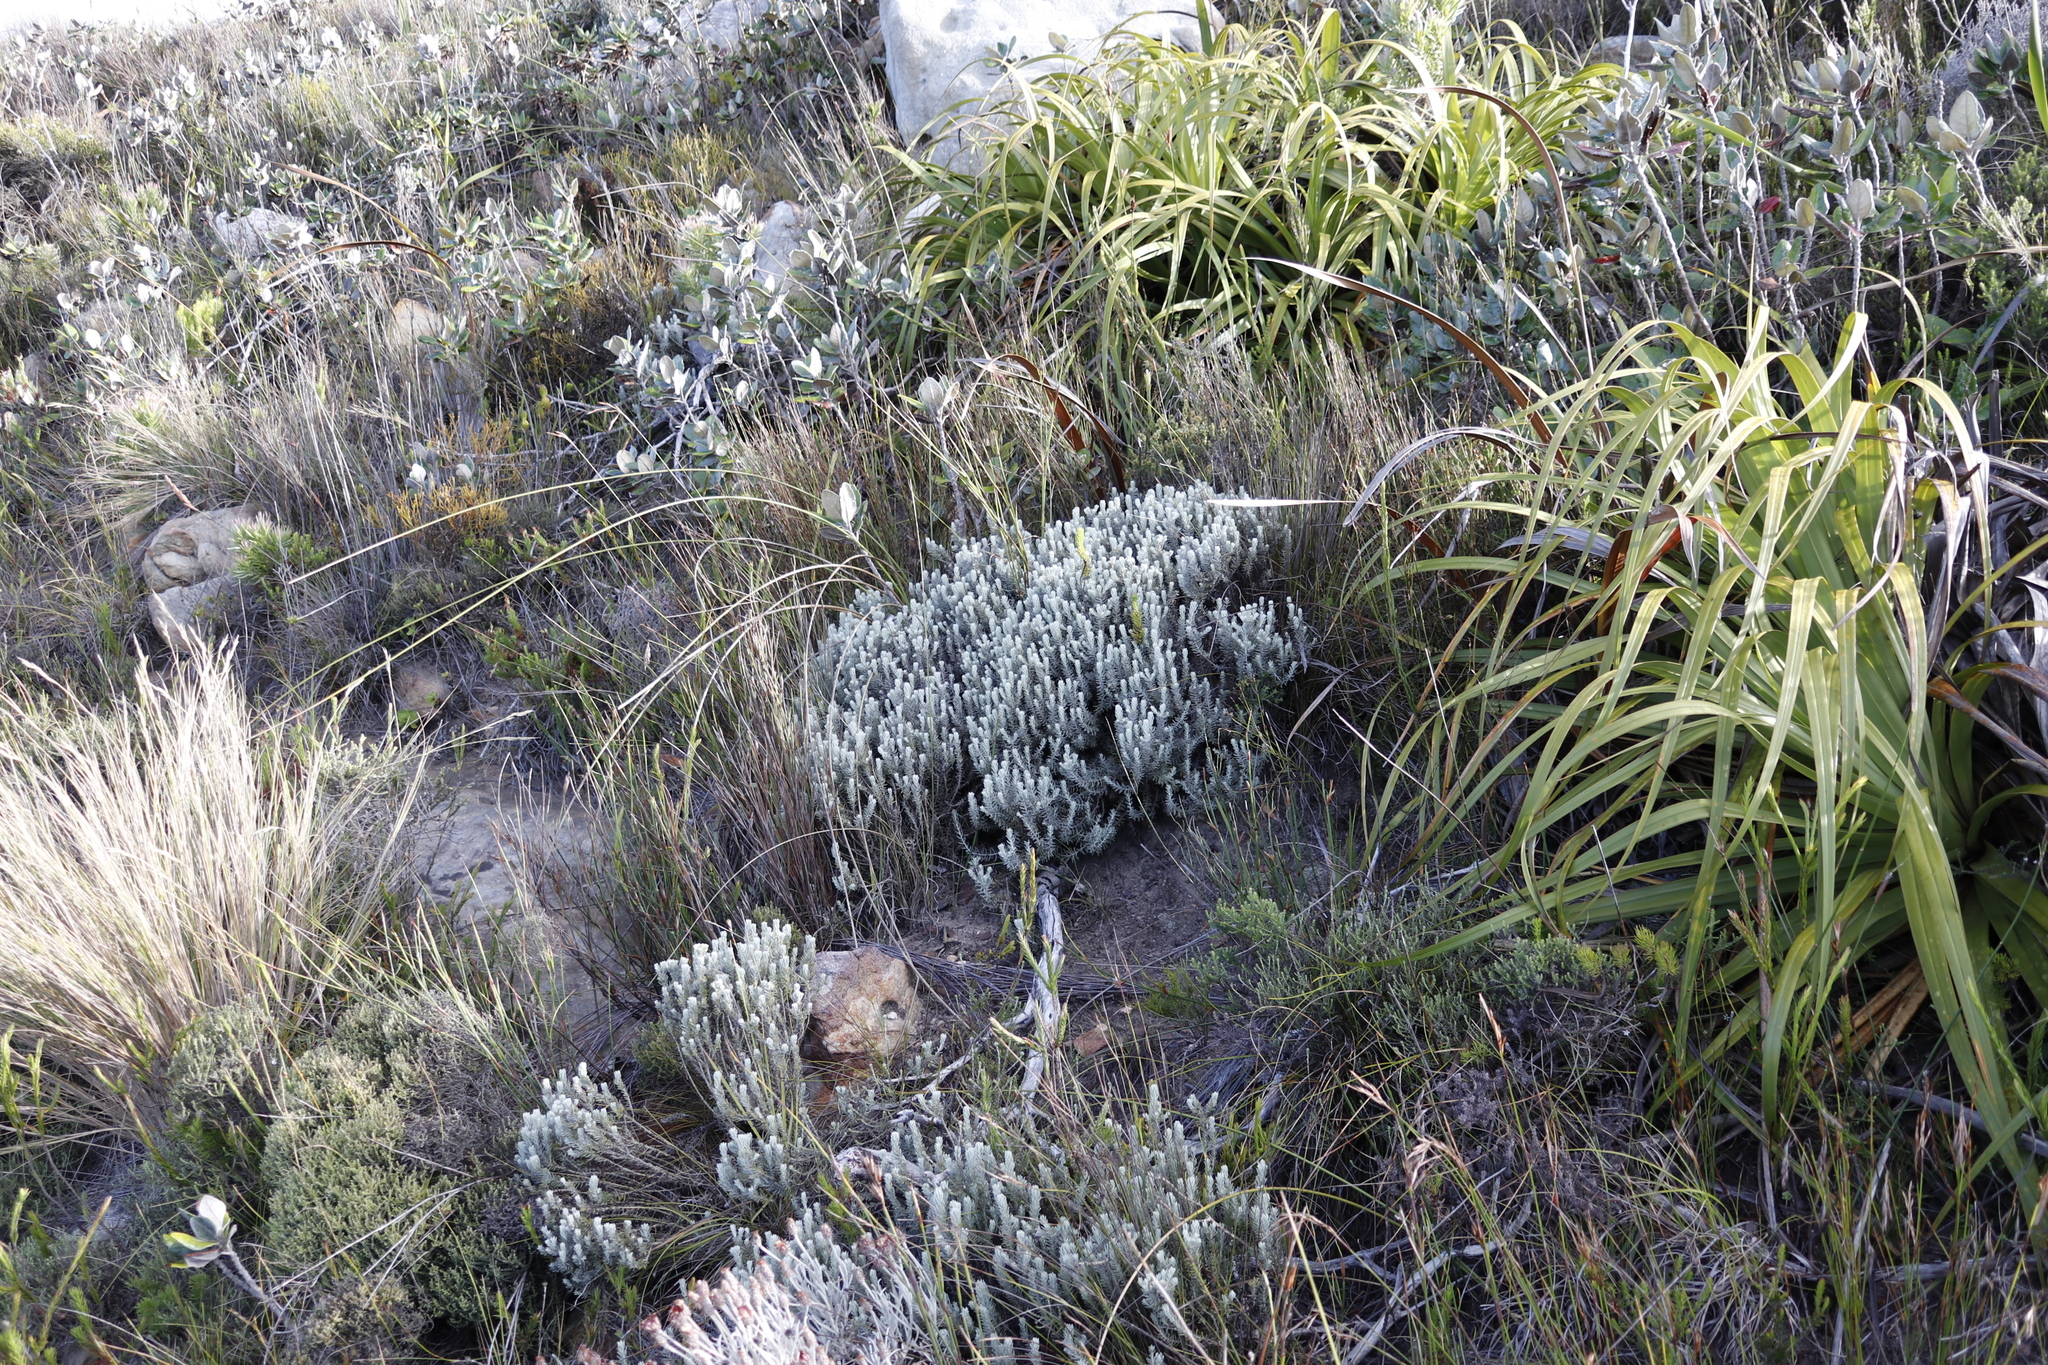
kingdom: Plantae
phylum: Tracheophyta
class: Magnoliopsida
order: Asterales
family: Asteraceae
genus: Printzia
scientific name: Printzia aromatica
